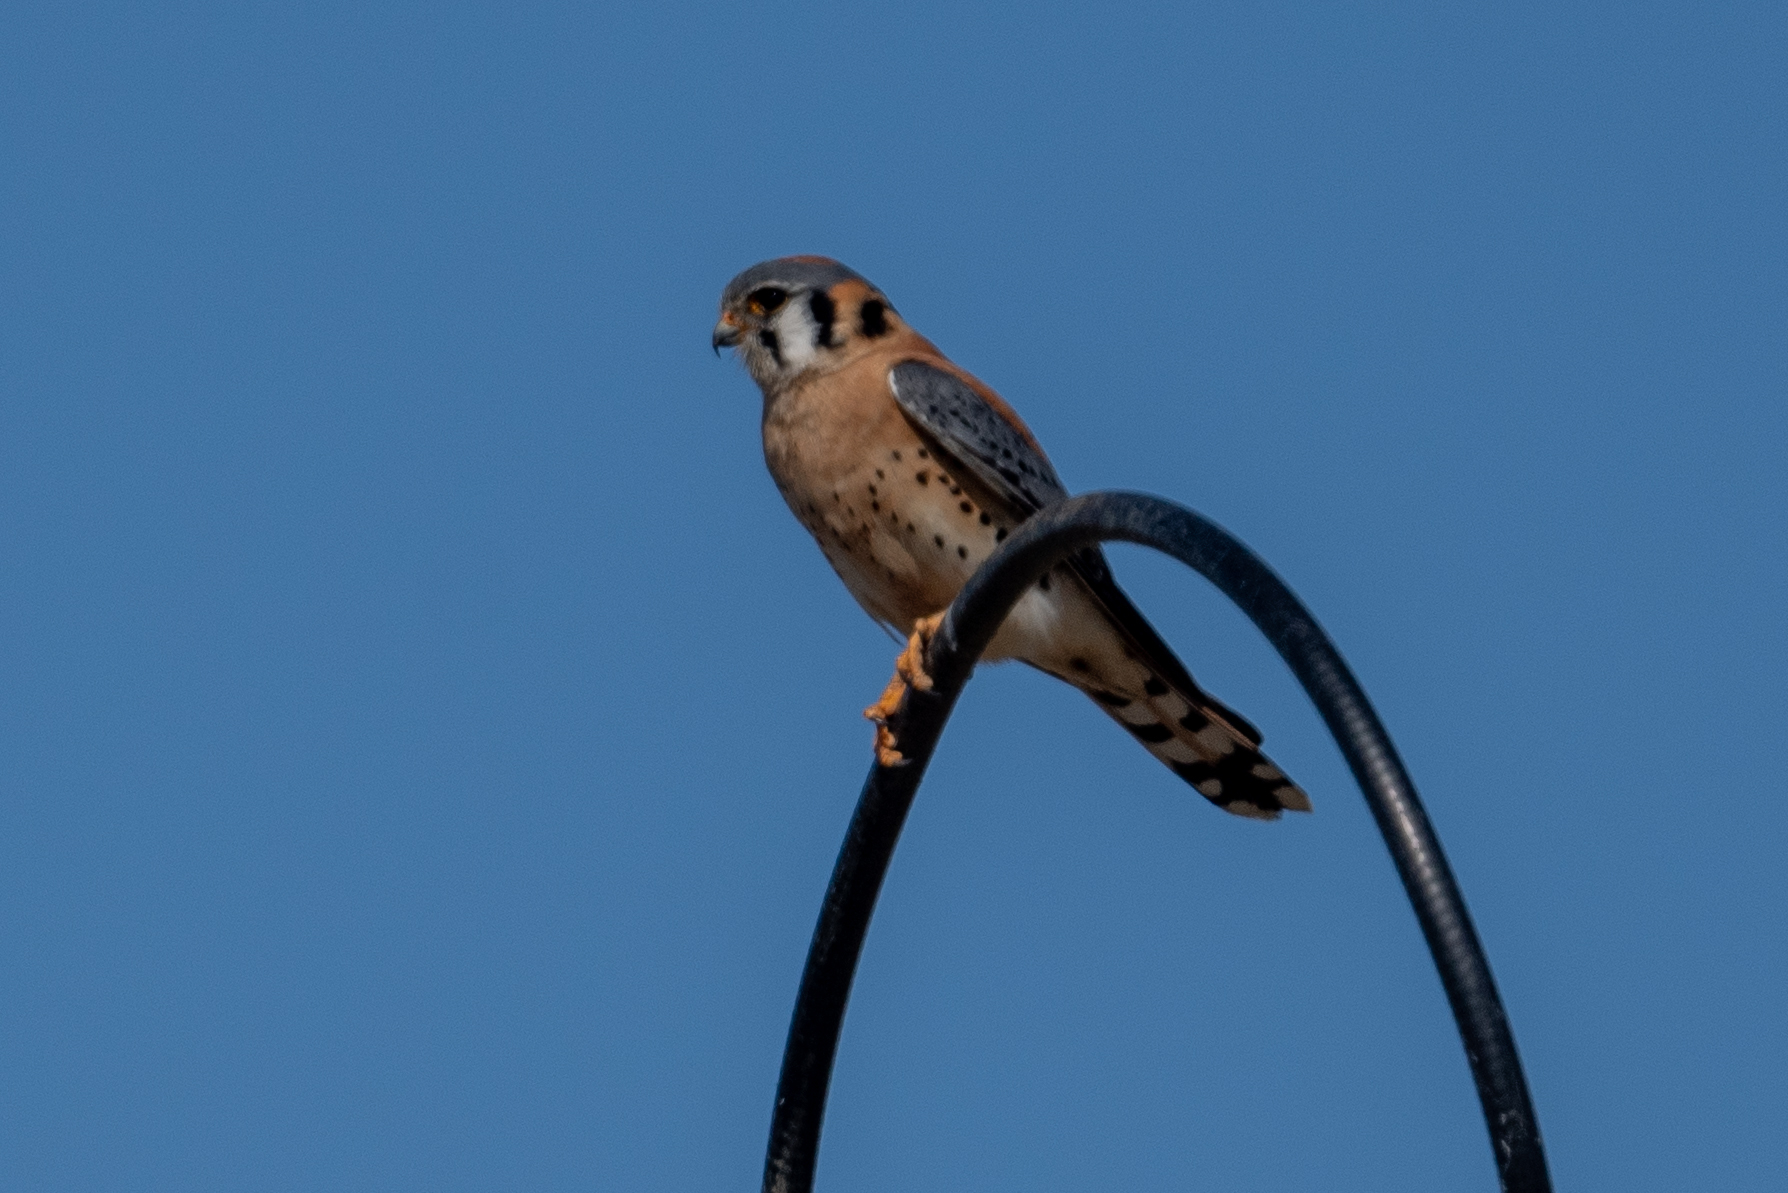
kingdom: Animalia
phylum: Chordata
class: Aves
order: Falconiformes
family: Falconidae
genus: Falco
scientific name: Falco sparverius
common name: American kestrel
